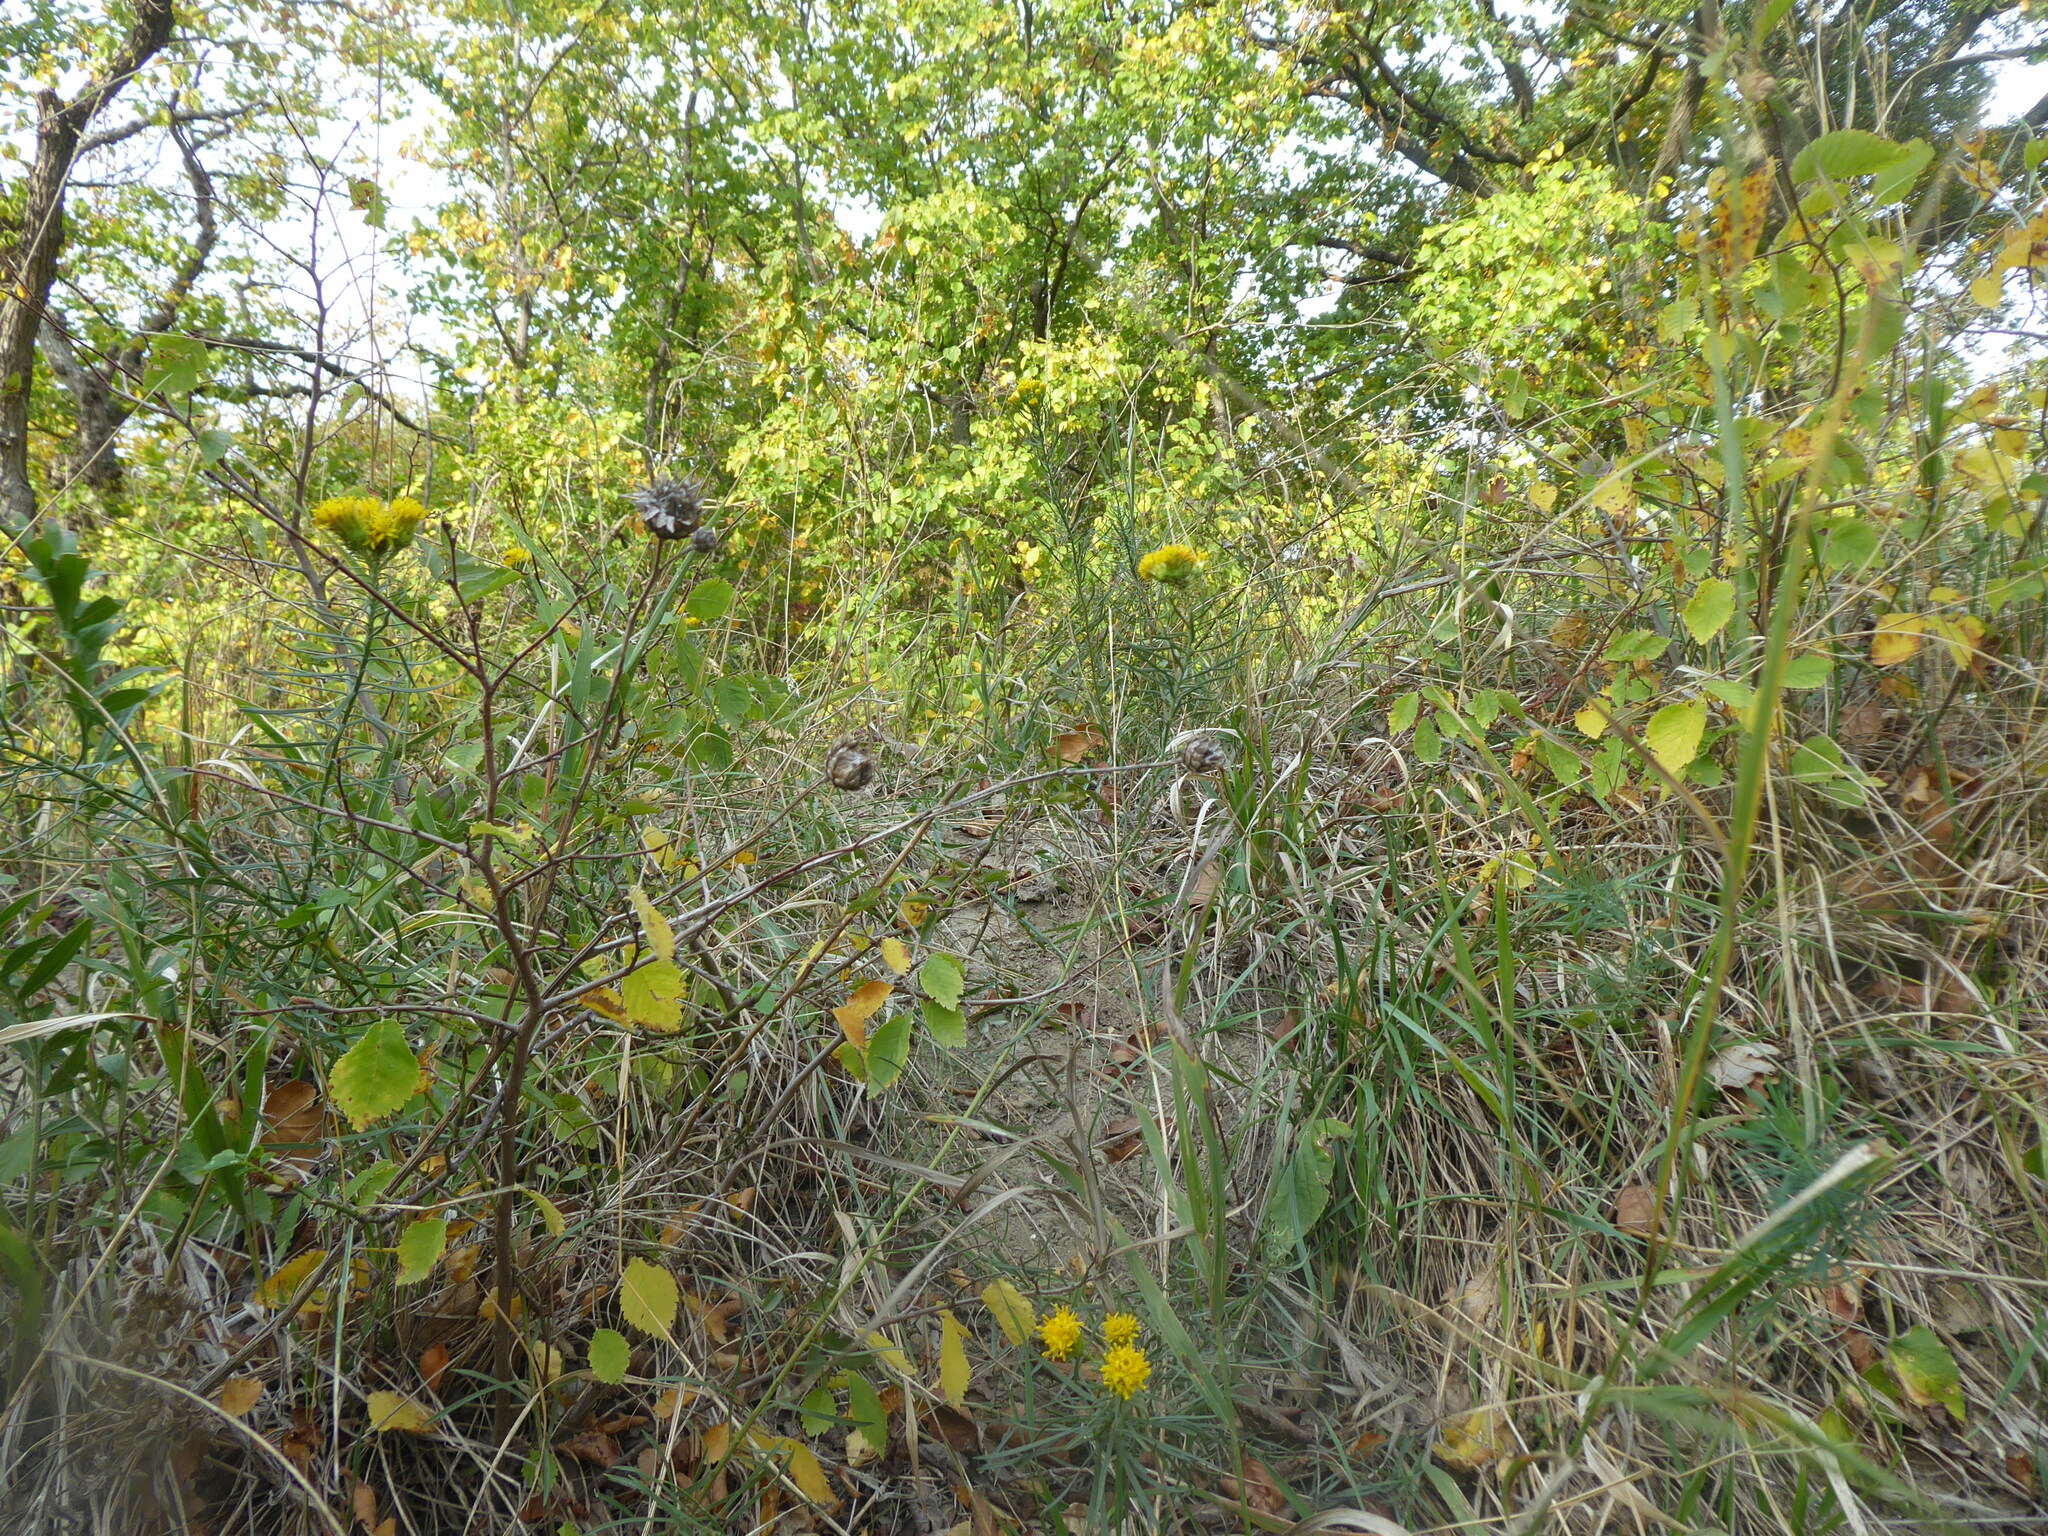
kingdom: Plantae
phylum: Tracheophyta
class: Magnoliopsida
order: Asterales
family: Asteraceae
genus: Galatella
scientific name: Galatella linosyris
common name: Goldilocks aster
